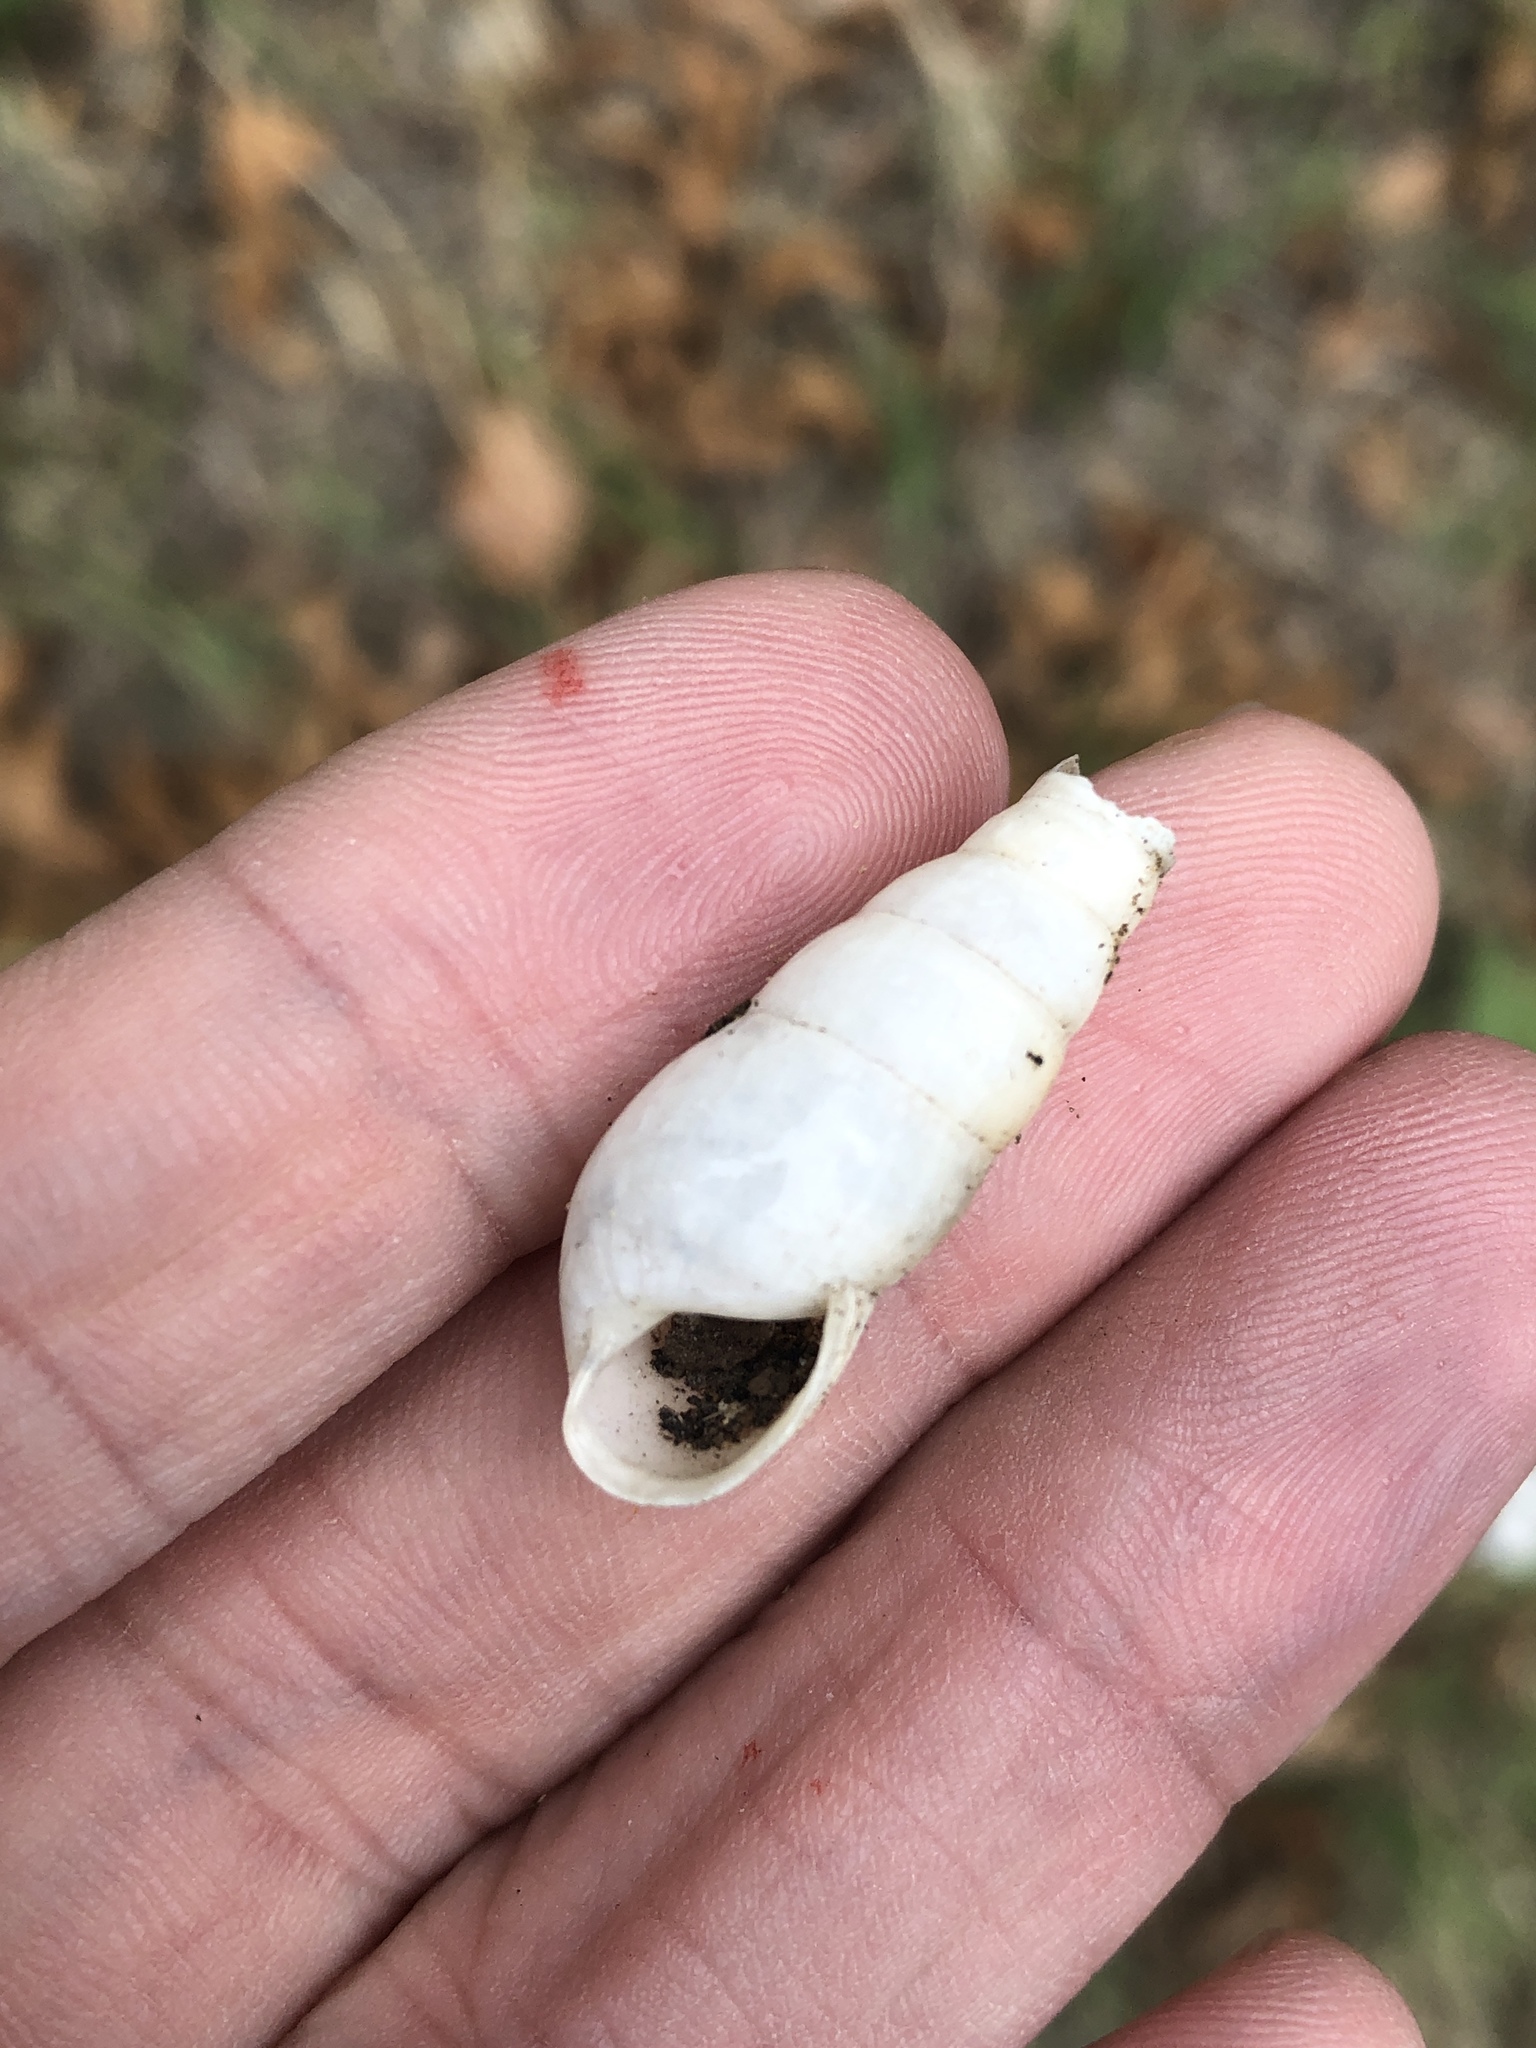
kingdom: Animalia
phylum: Mollusca
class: Gastropoda
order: Stylommatophora
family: Achatinidae
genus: Rumina
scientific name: Rumina decollata
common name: Decollate snail
